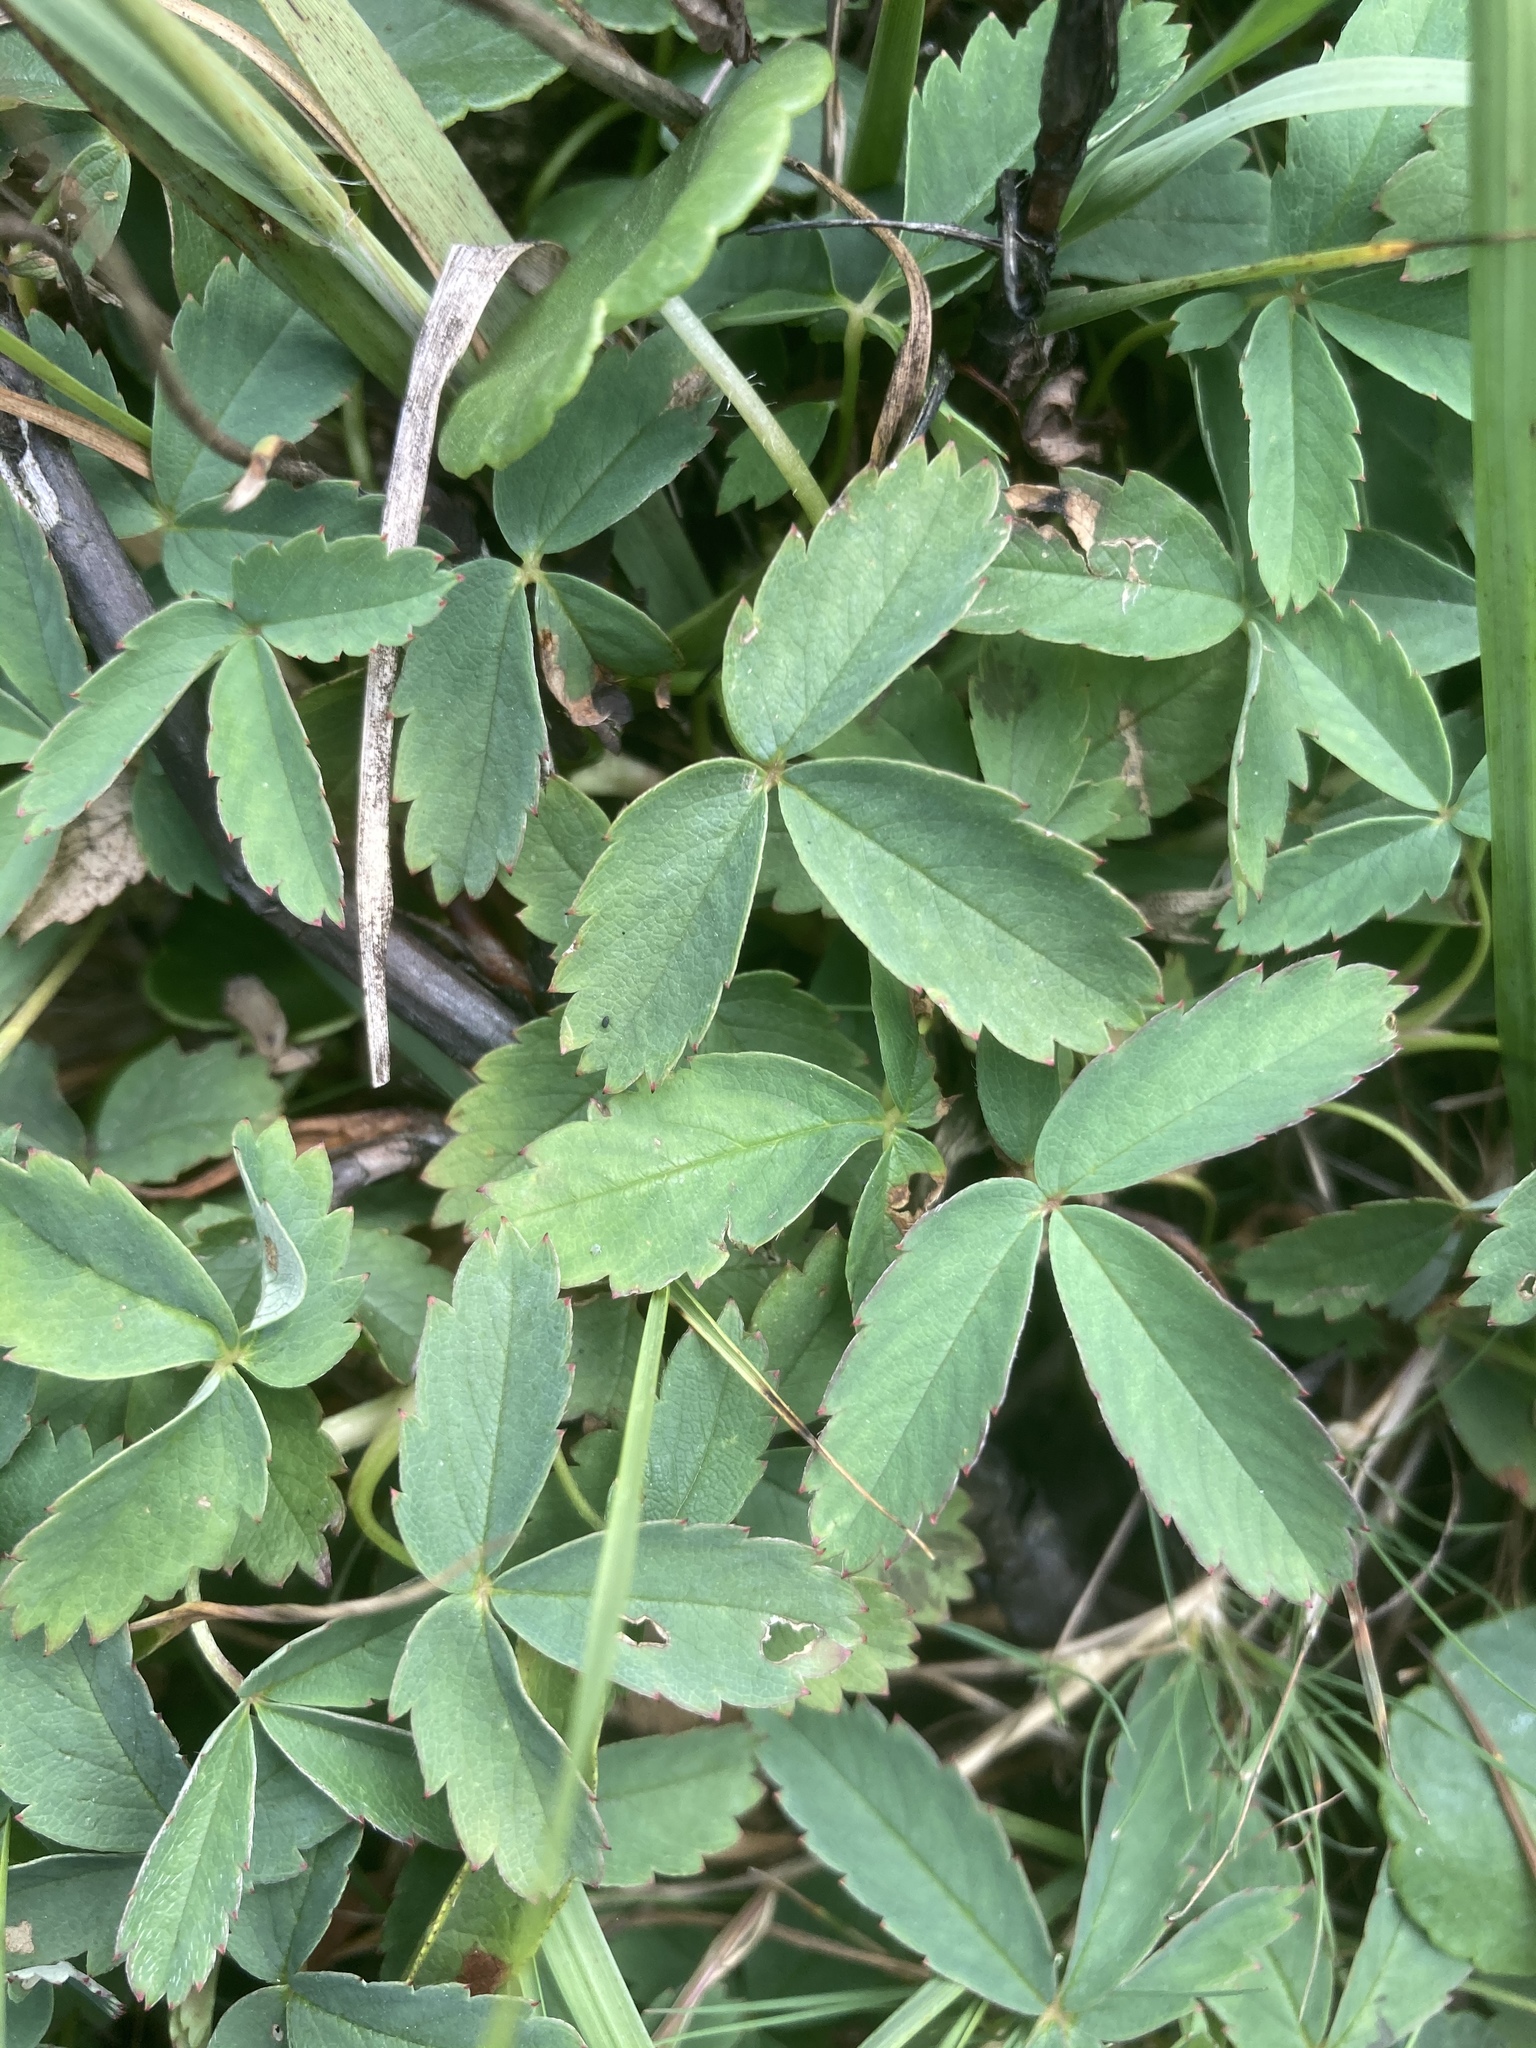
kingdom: Plantae
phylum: Tracheophyta
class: Magnoliopsida
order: Rosales
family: Rosaceae
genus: Comarum
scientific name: Comarum palustre
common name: Marsh cinquefoil
